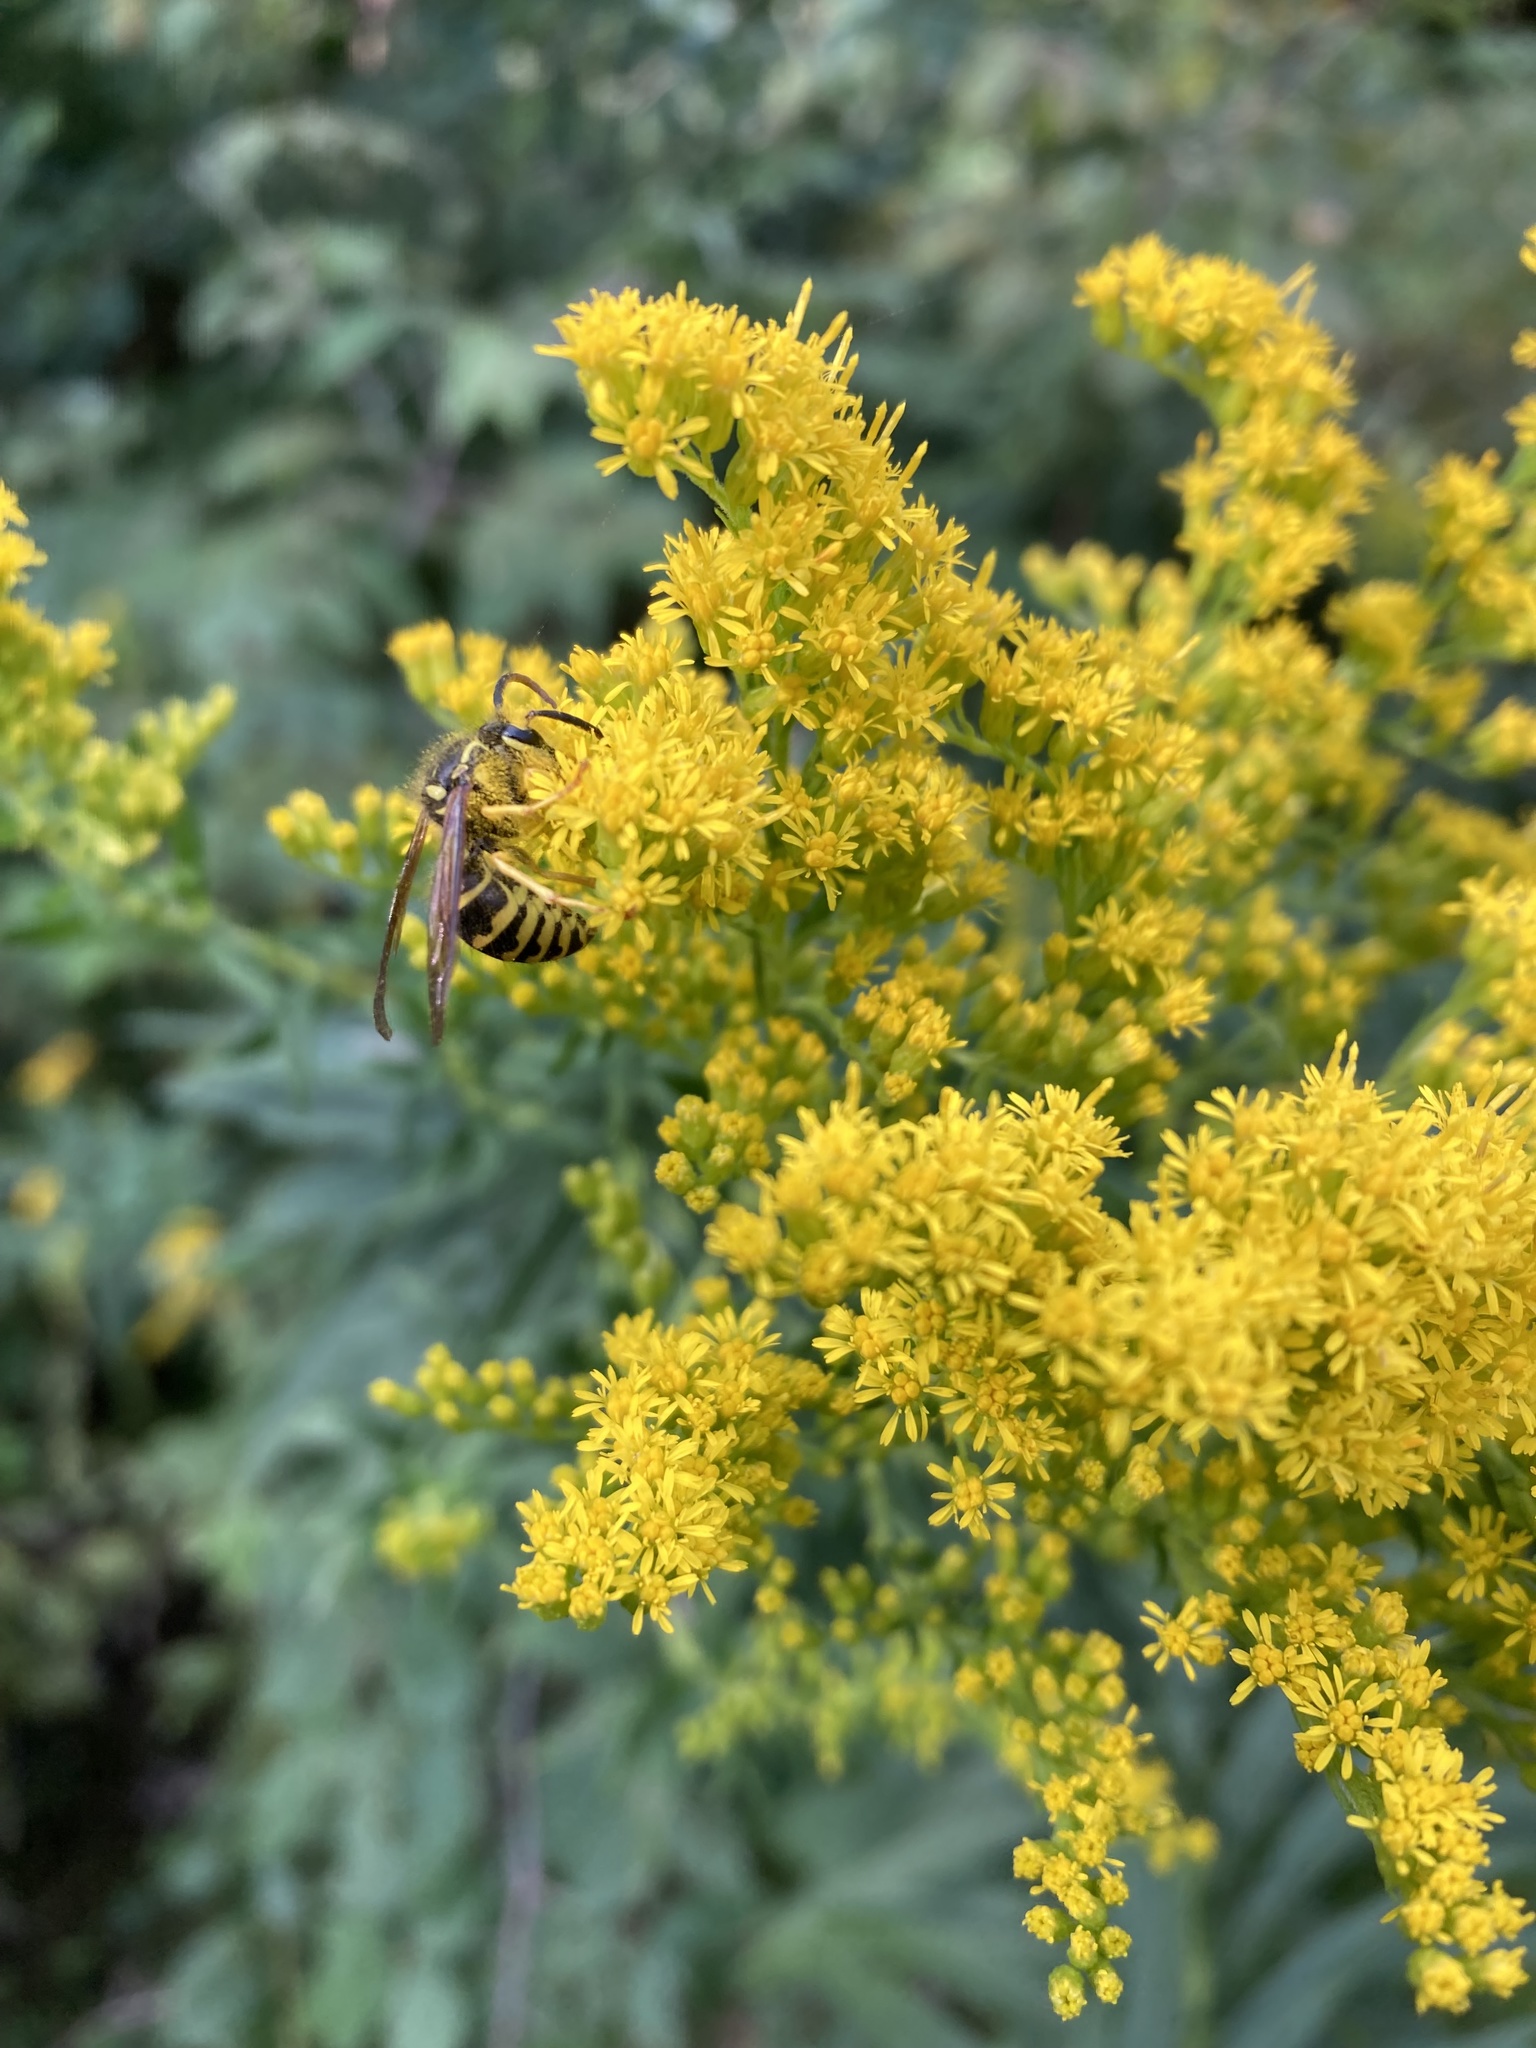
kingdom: Animalia
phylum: Arthropoda
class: Insecta
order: Hymenoptera
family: Vespidae
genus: Dolichovespula
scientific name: Dolichovespula arenaria
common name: Aerial yellowjacket
